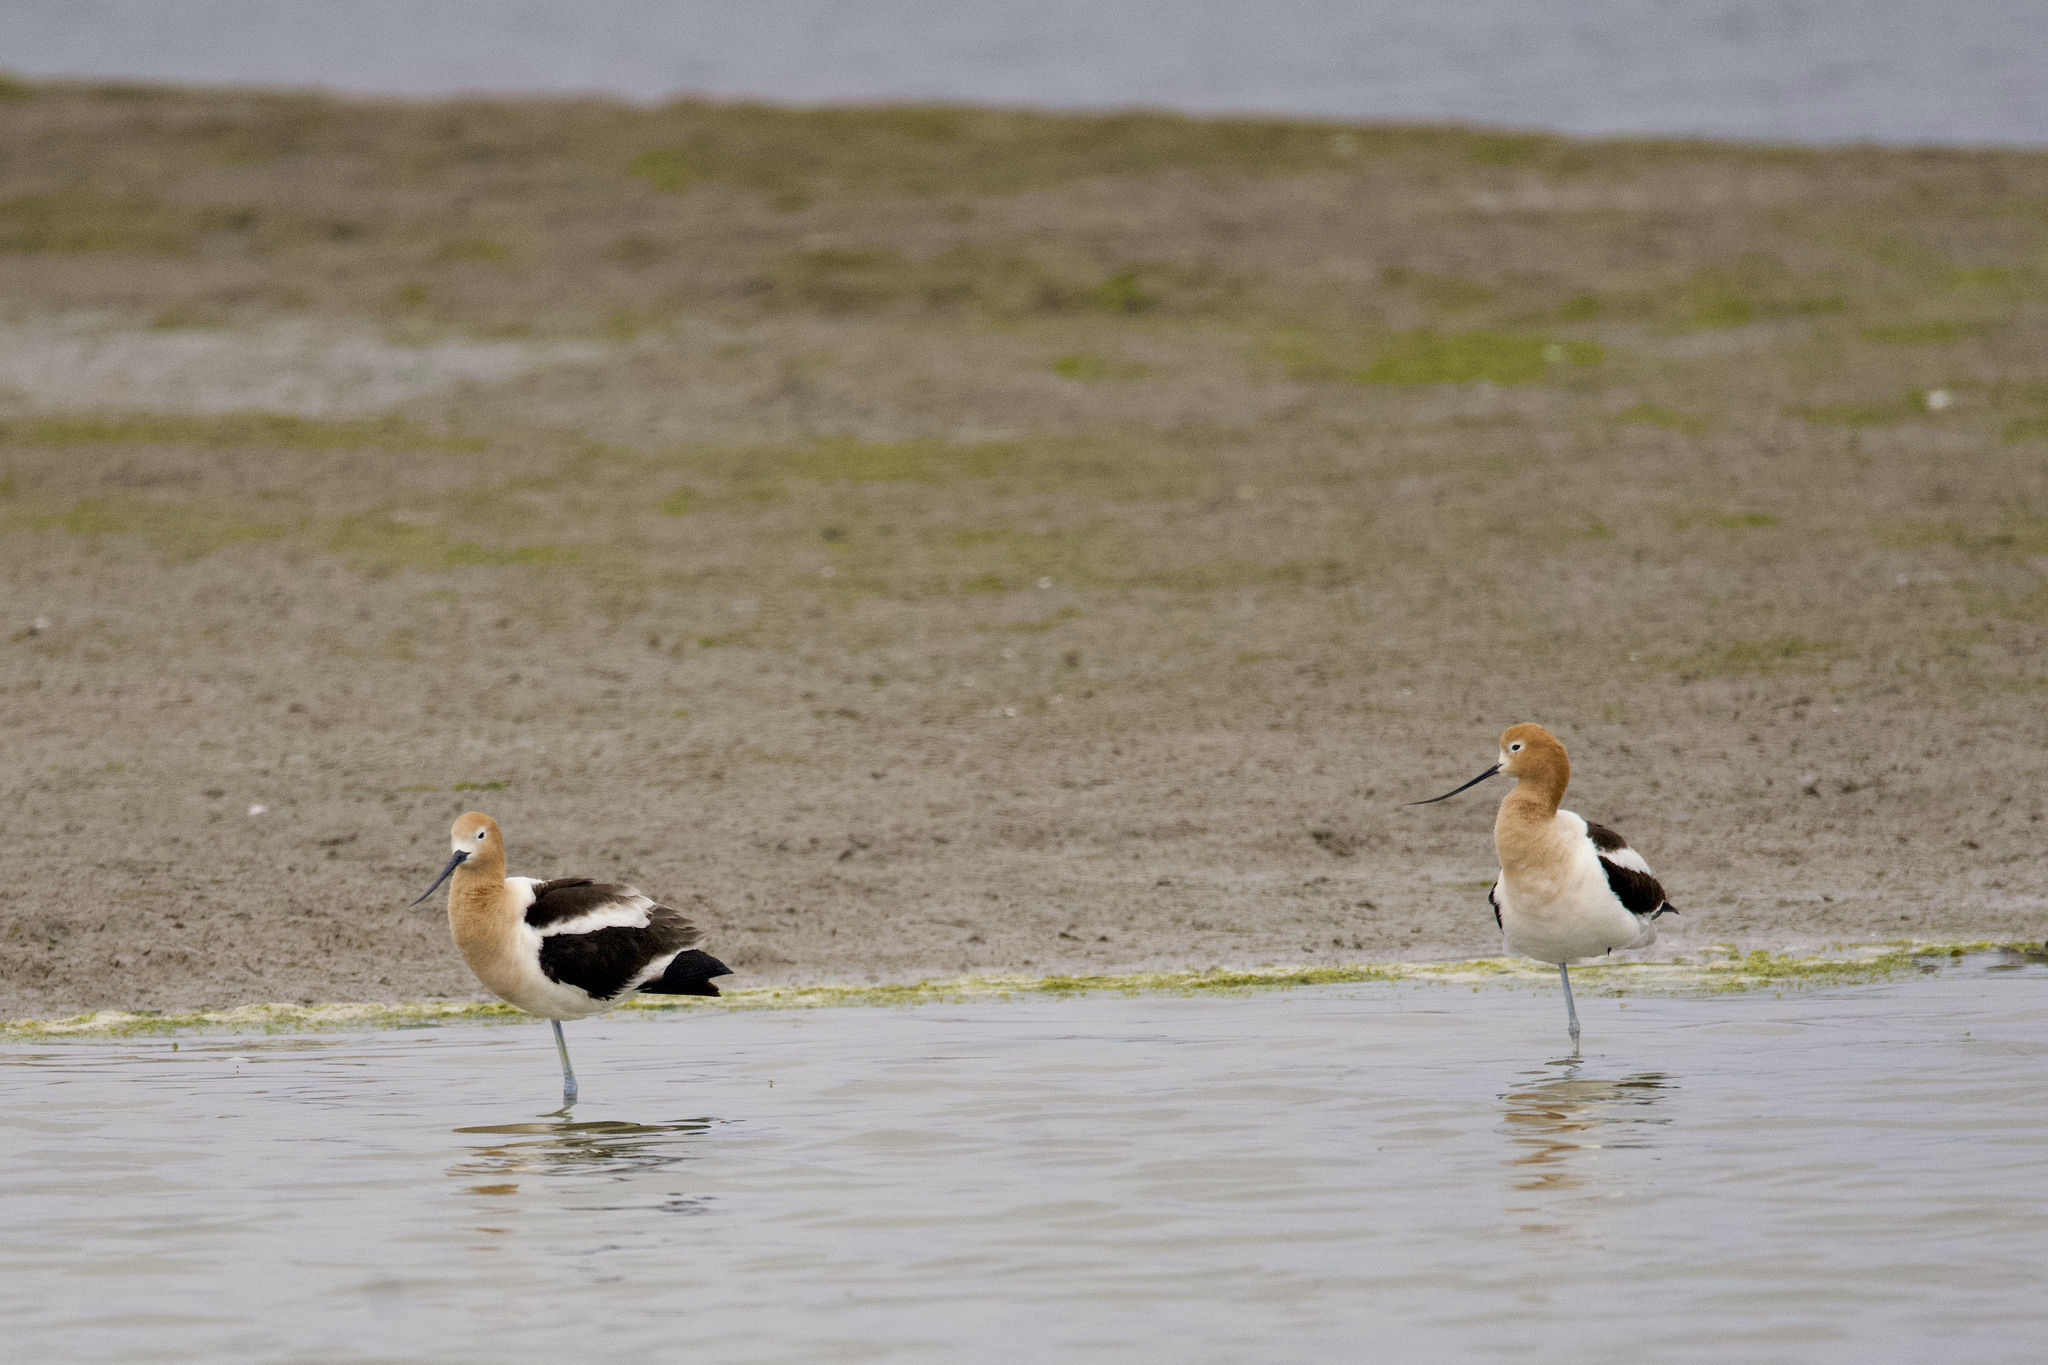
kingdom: Animalia
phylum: Chordata
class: Aves
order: Charadriiformes
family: Recurvirostridae
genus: Recurvirostra
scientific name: Recurvirostra americana
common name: American avocet
